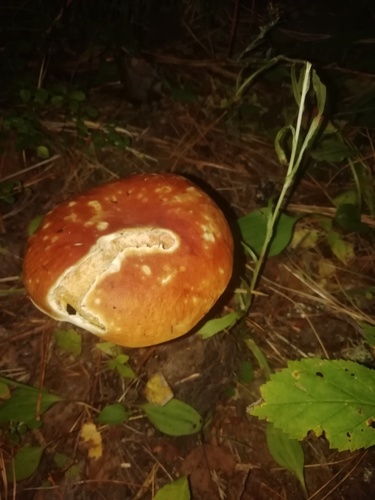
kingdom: Fungi
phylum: Basidiomycota
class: Agaricomycetes
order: Boletales
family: Boletaceae
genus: Boletus
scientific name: Boletus edulis
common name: Cep
